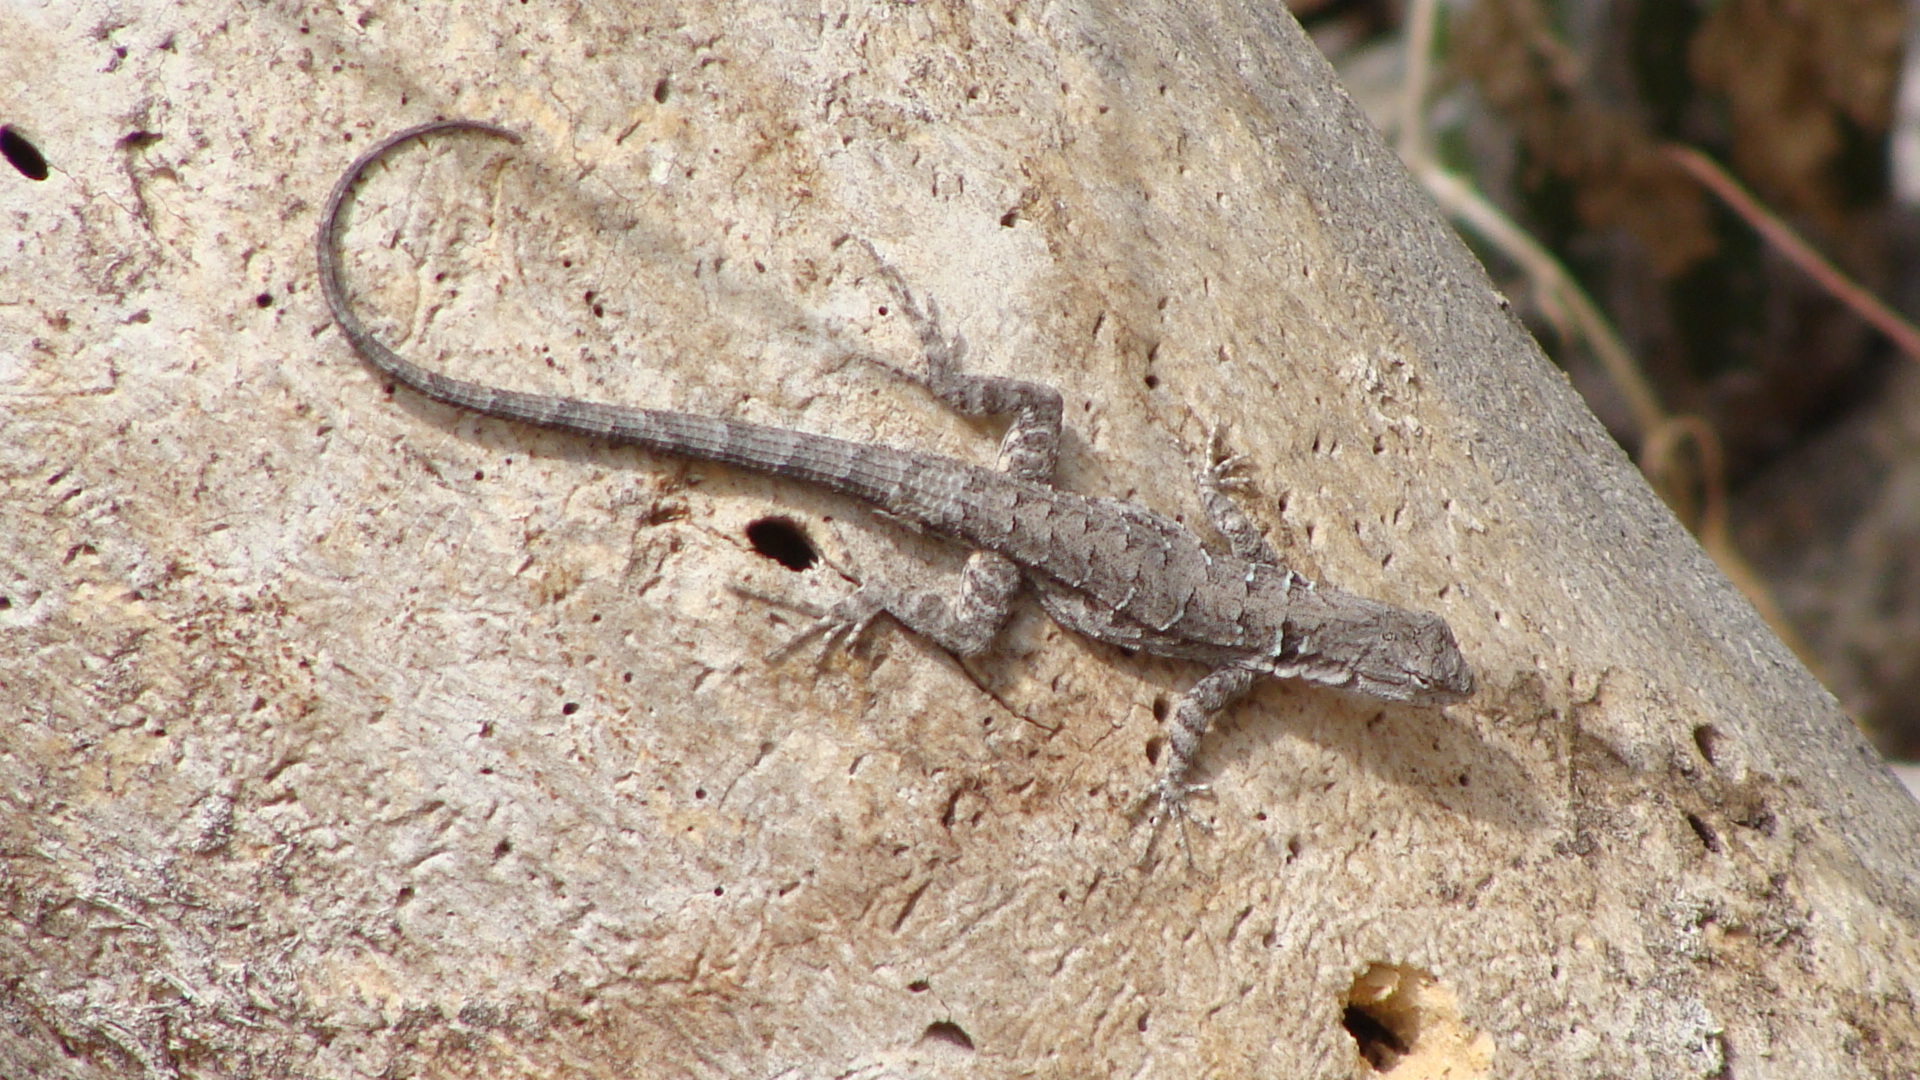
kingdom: Animalia
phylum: Chordata
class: Squamata
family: Phrynosomatidae
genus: Urosaurus
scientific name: Urosaurus nigricauda
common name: Baja california brush lizard
